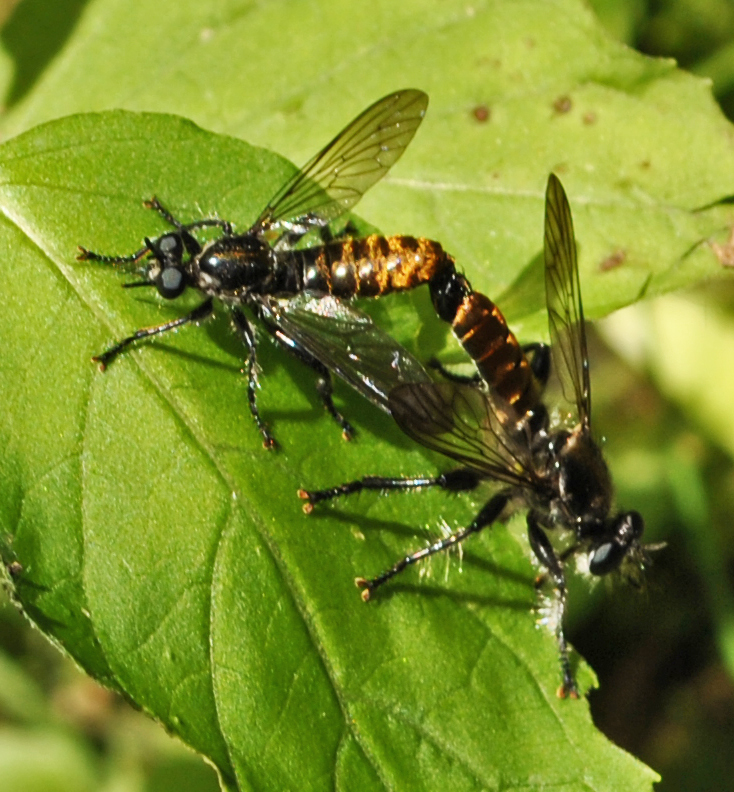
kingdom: Animalia
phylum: Arthropoda
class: Insecta
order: Diptera
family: Asilidae
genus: Laphria
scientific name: Laphria
